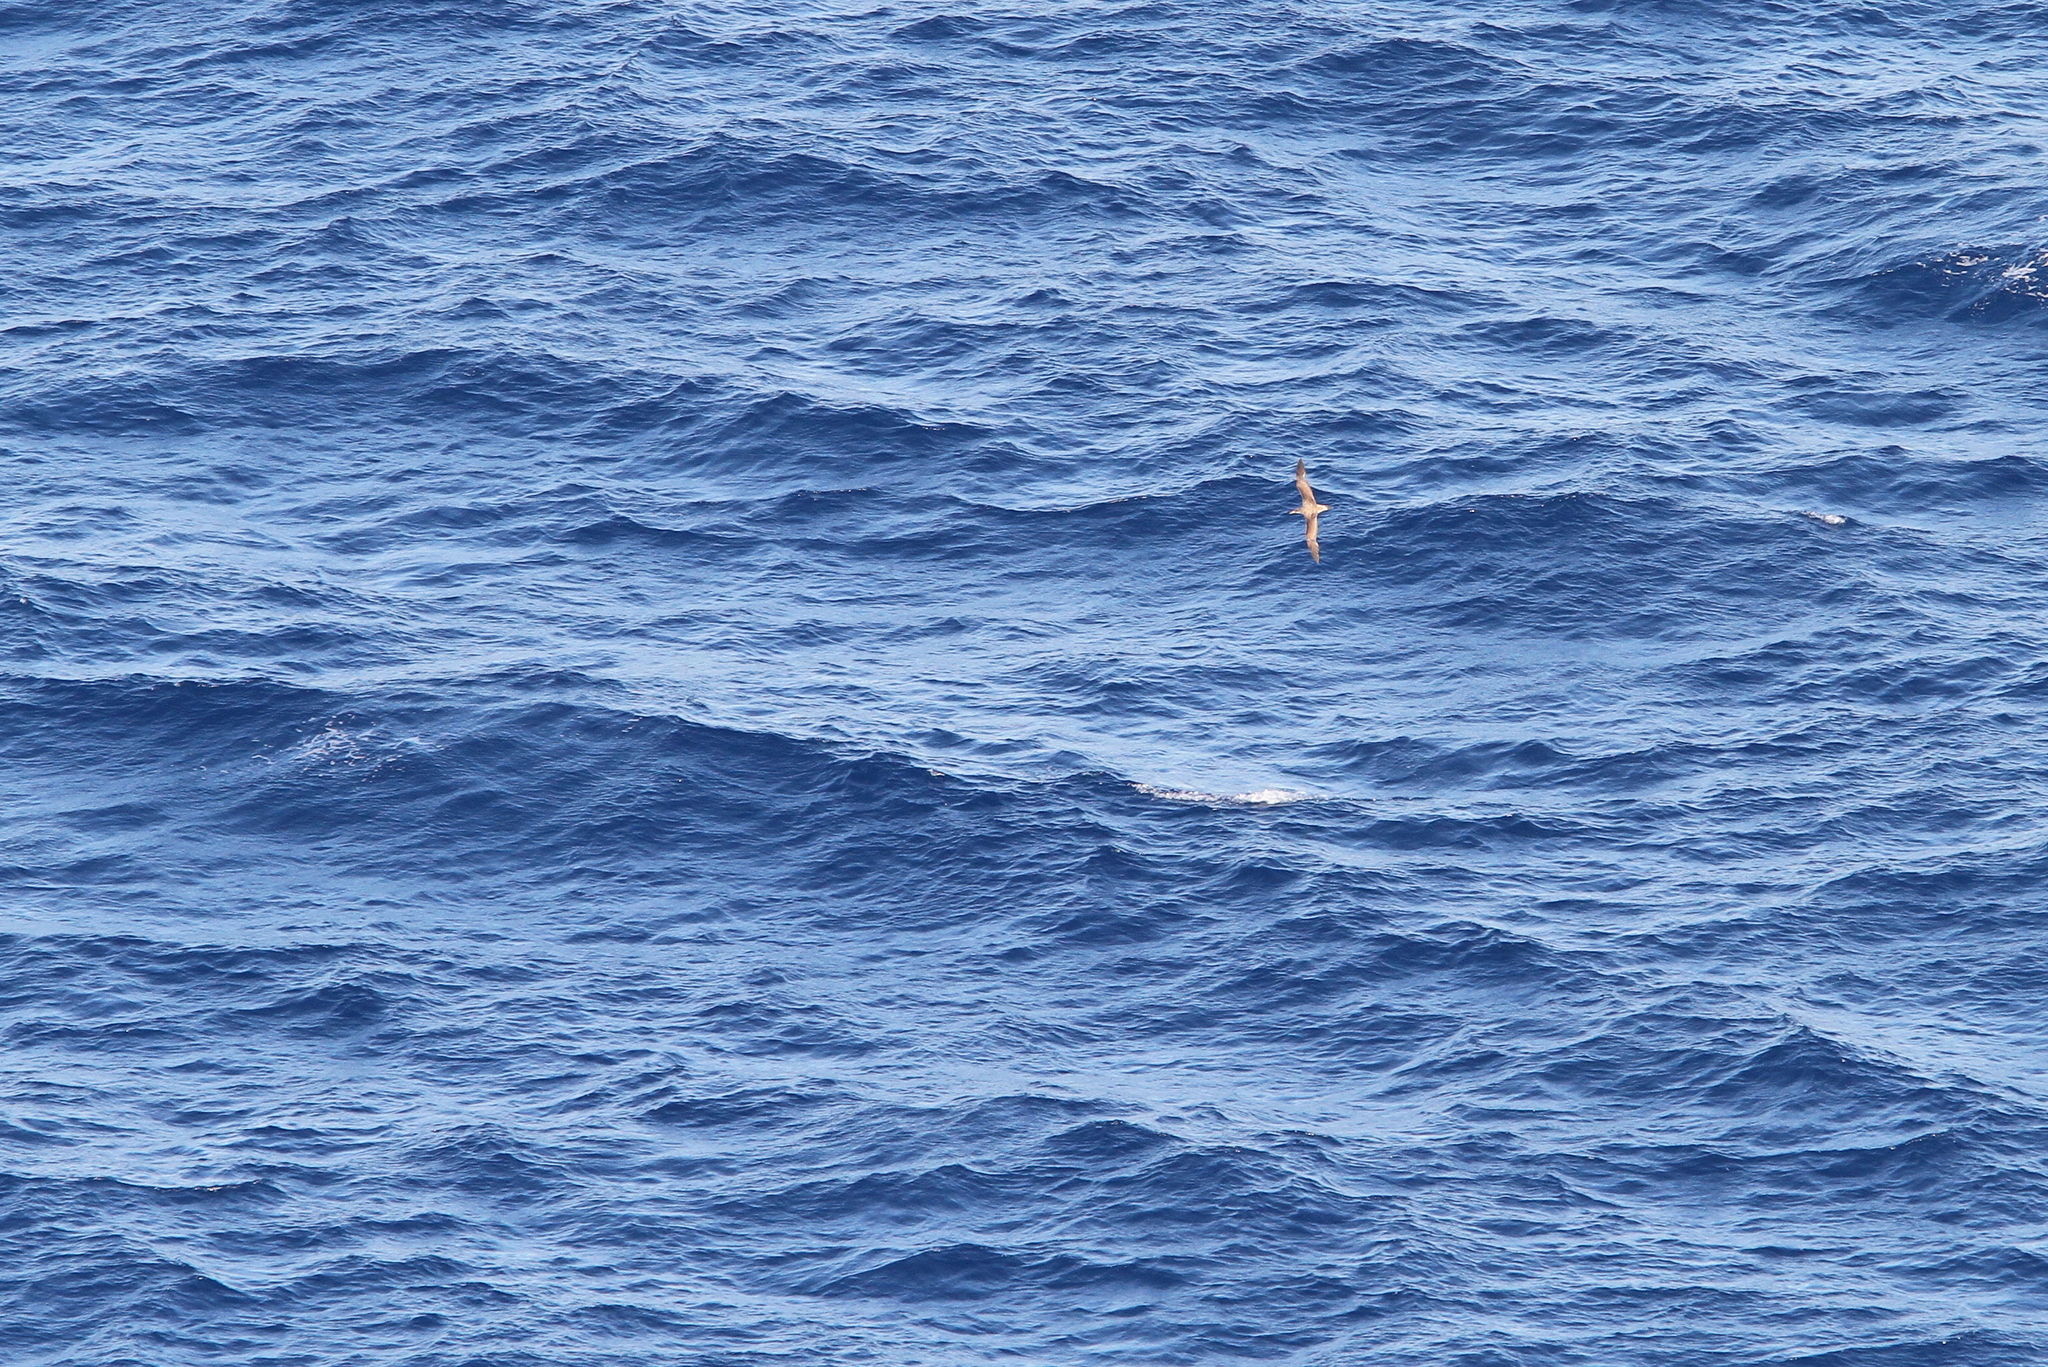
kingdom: Animalia
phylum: Chordata
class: Aves
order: Procellariiformes
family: Procellariidae
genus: Calonectris
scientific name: Calonectris diomedea
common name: Cory's shearwater
